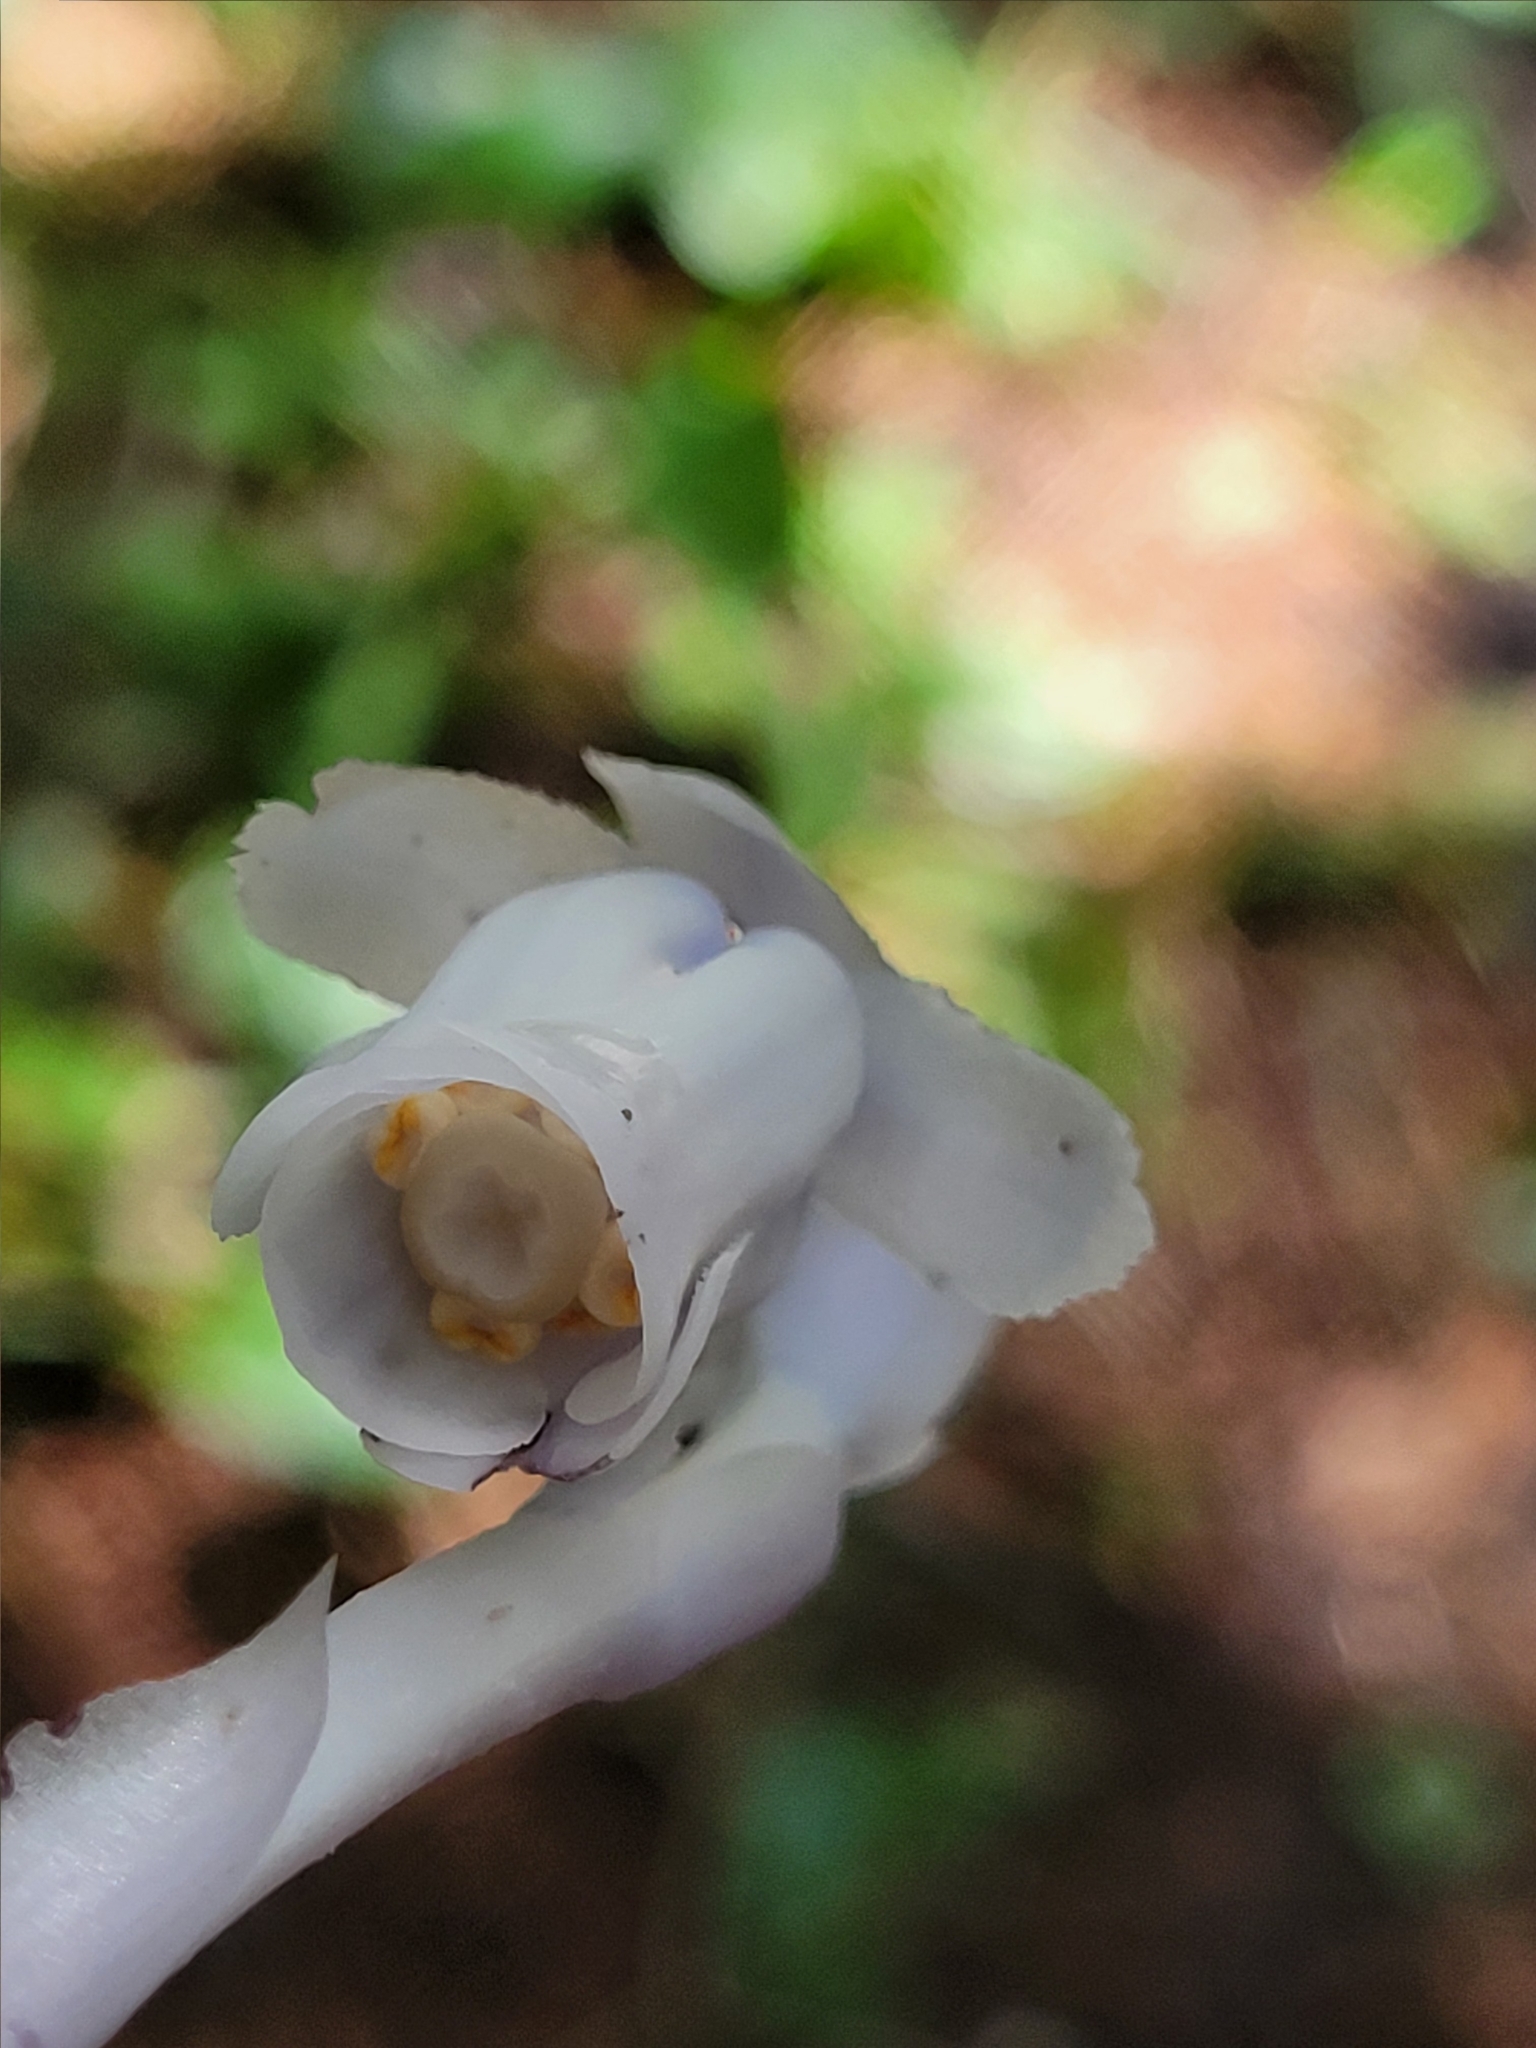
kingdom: Plantae
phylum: Tracheophyta
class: Magnoliopsida
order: Ericales
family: Ericaceae
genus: Monotropa
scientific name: Monotropa uniflora
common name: Convulsion root
